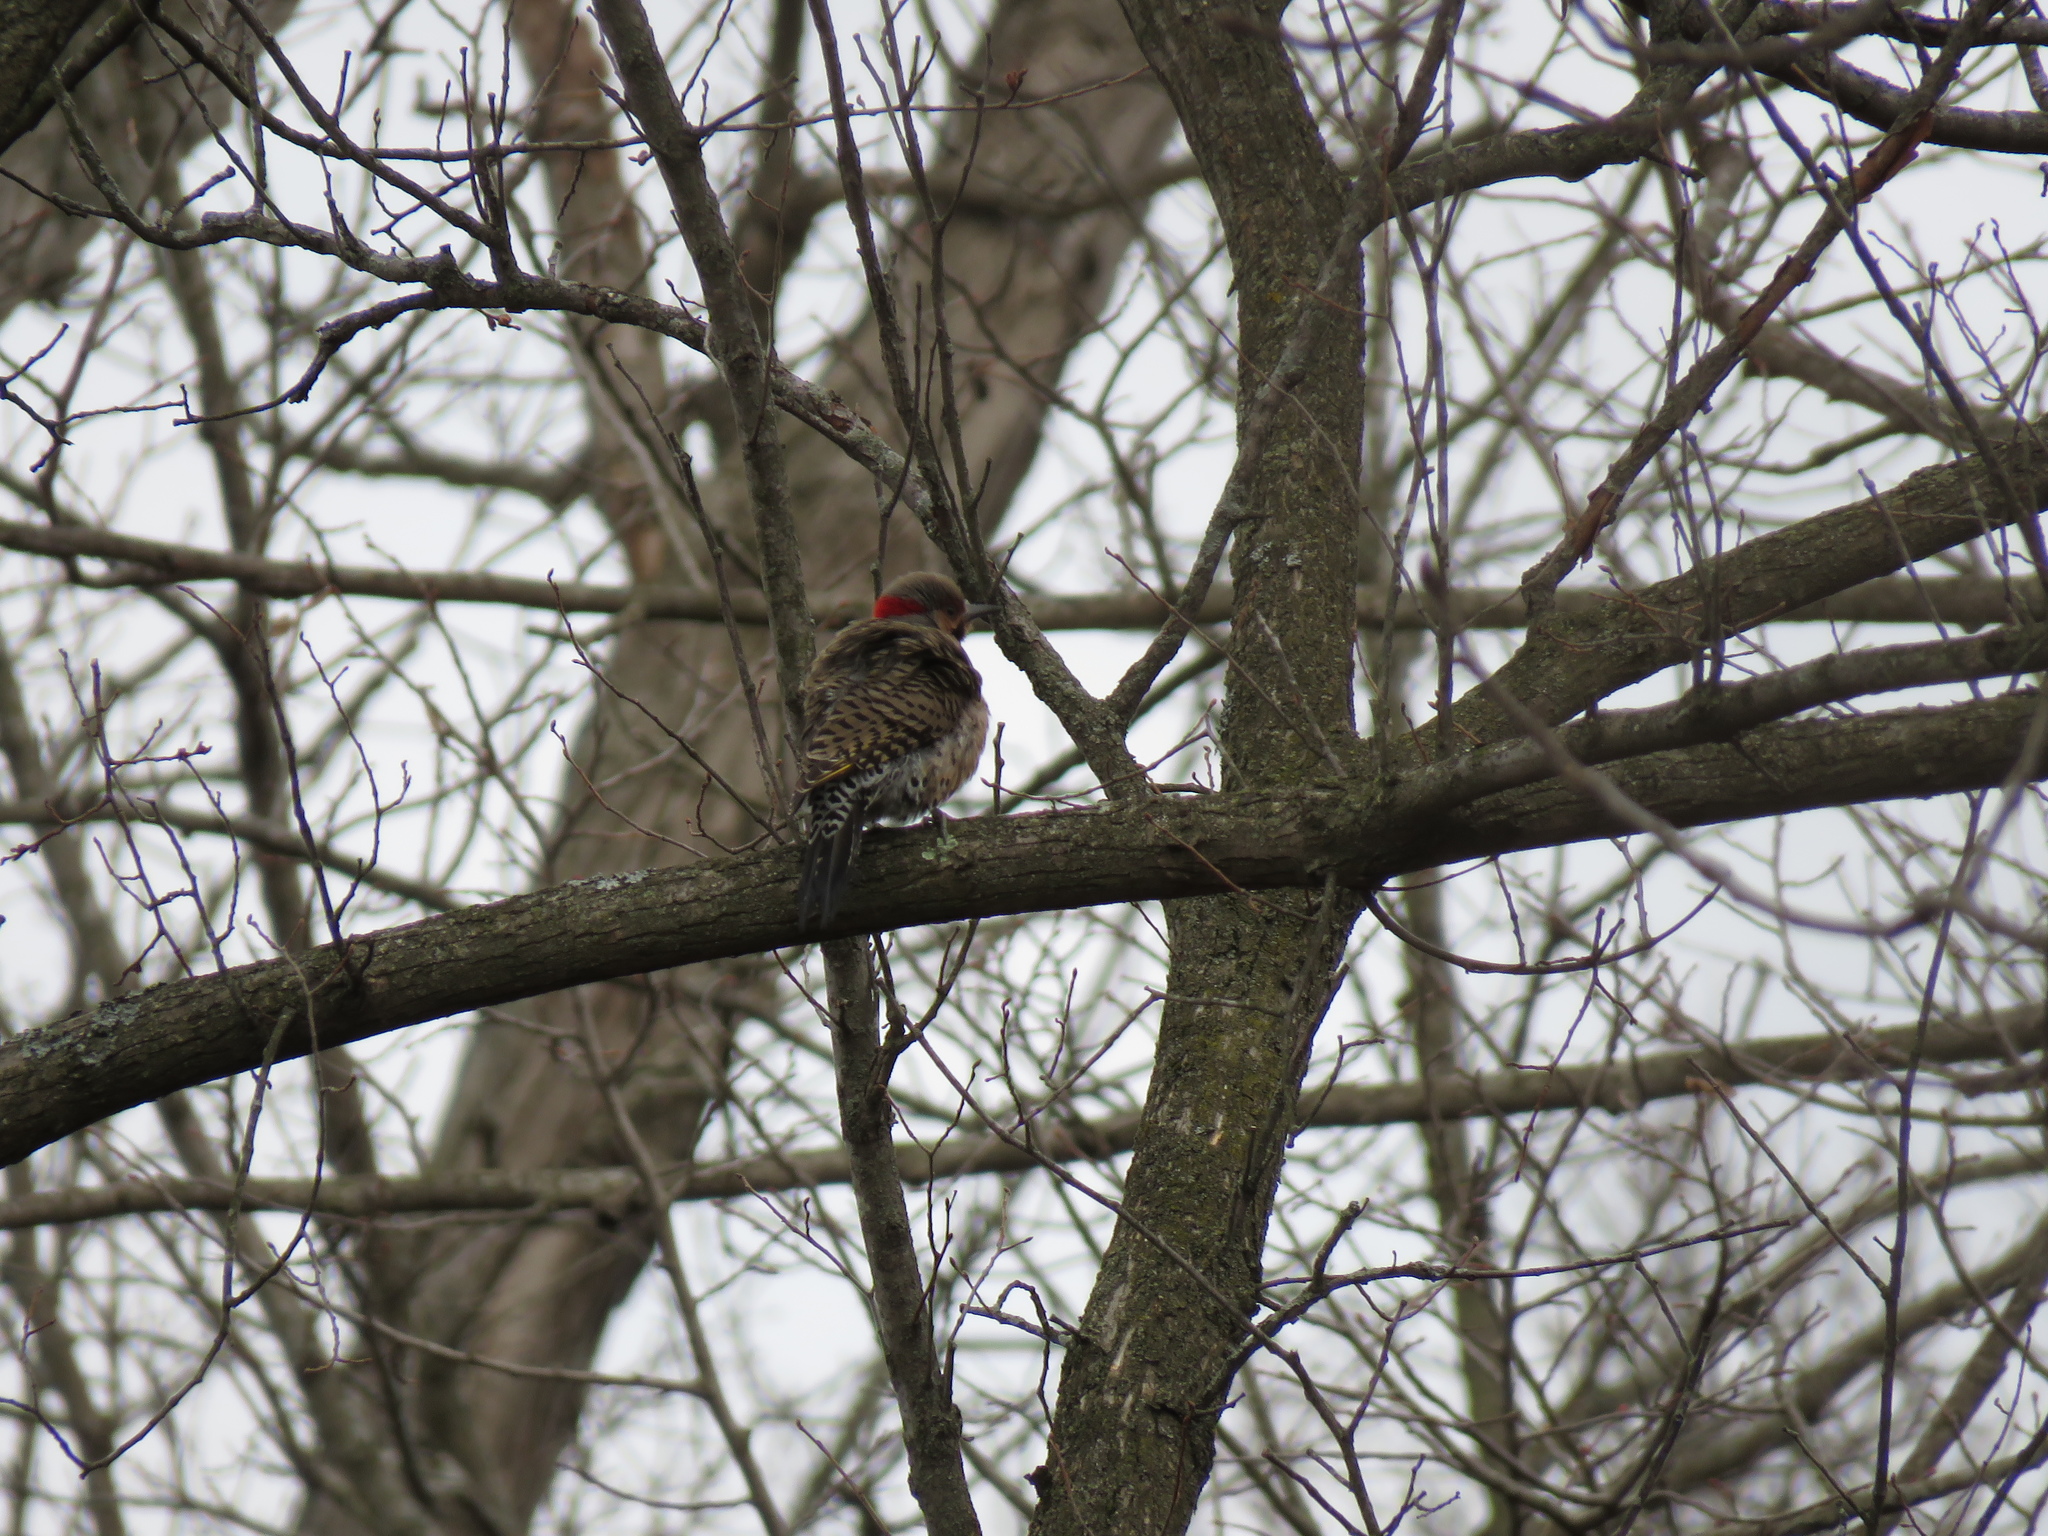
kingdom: Animalia
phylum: Chordata
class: Aves
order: Piciformes
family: Picidae
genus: Colaptes
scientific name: Colaptes auratus
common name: Northern flicker
